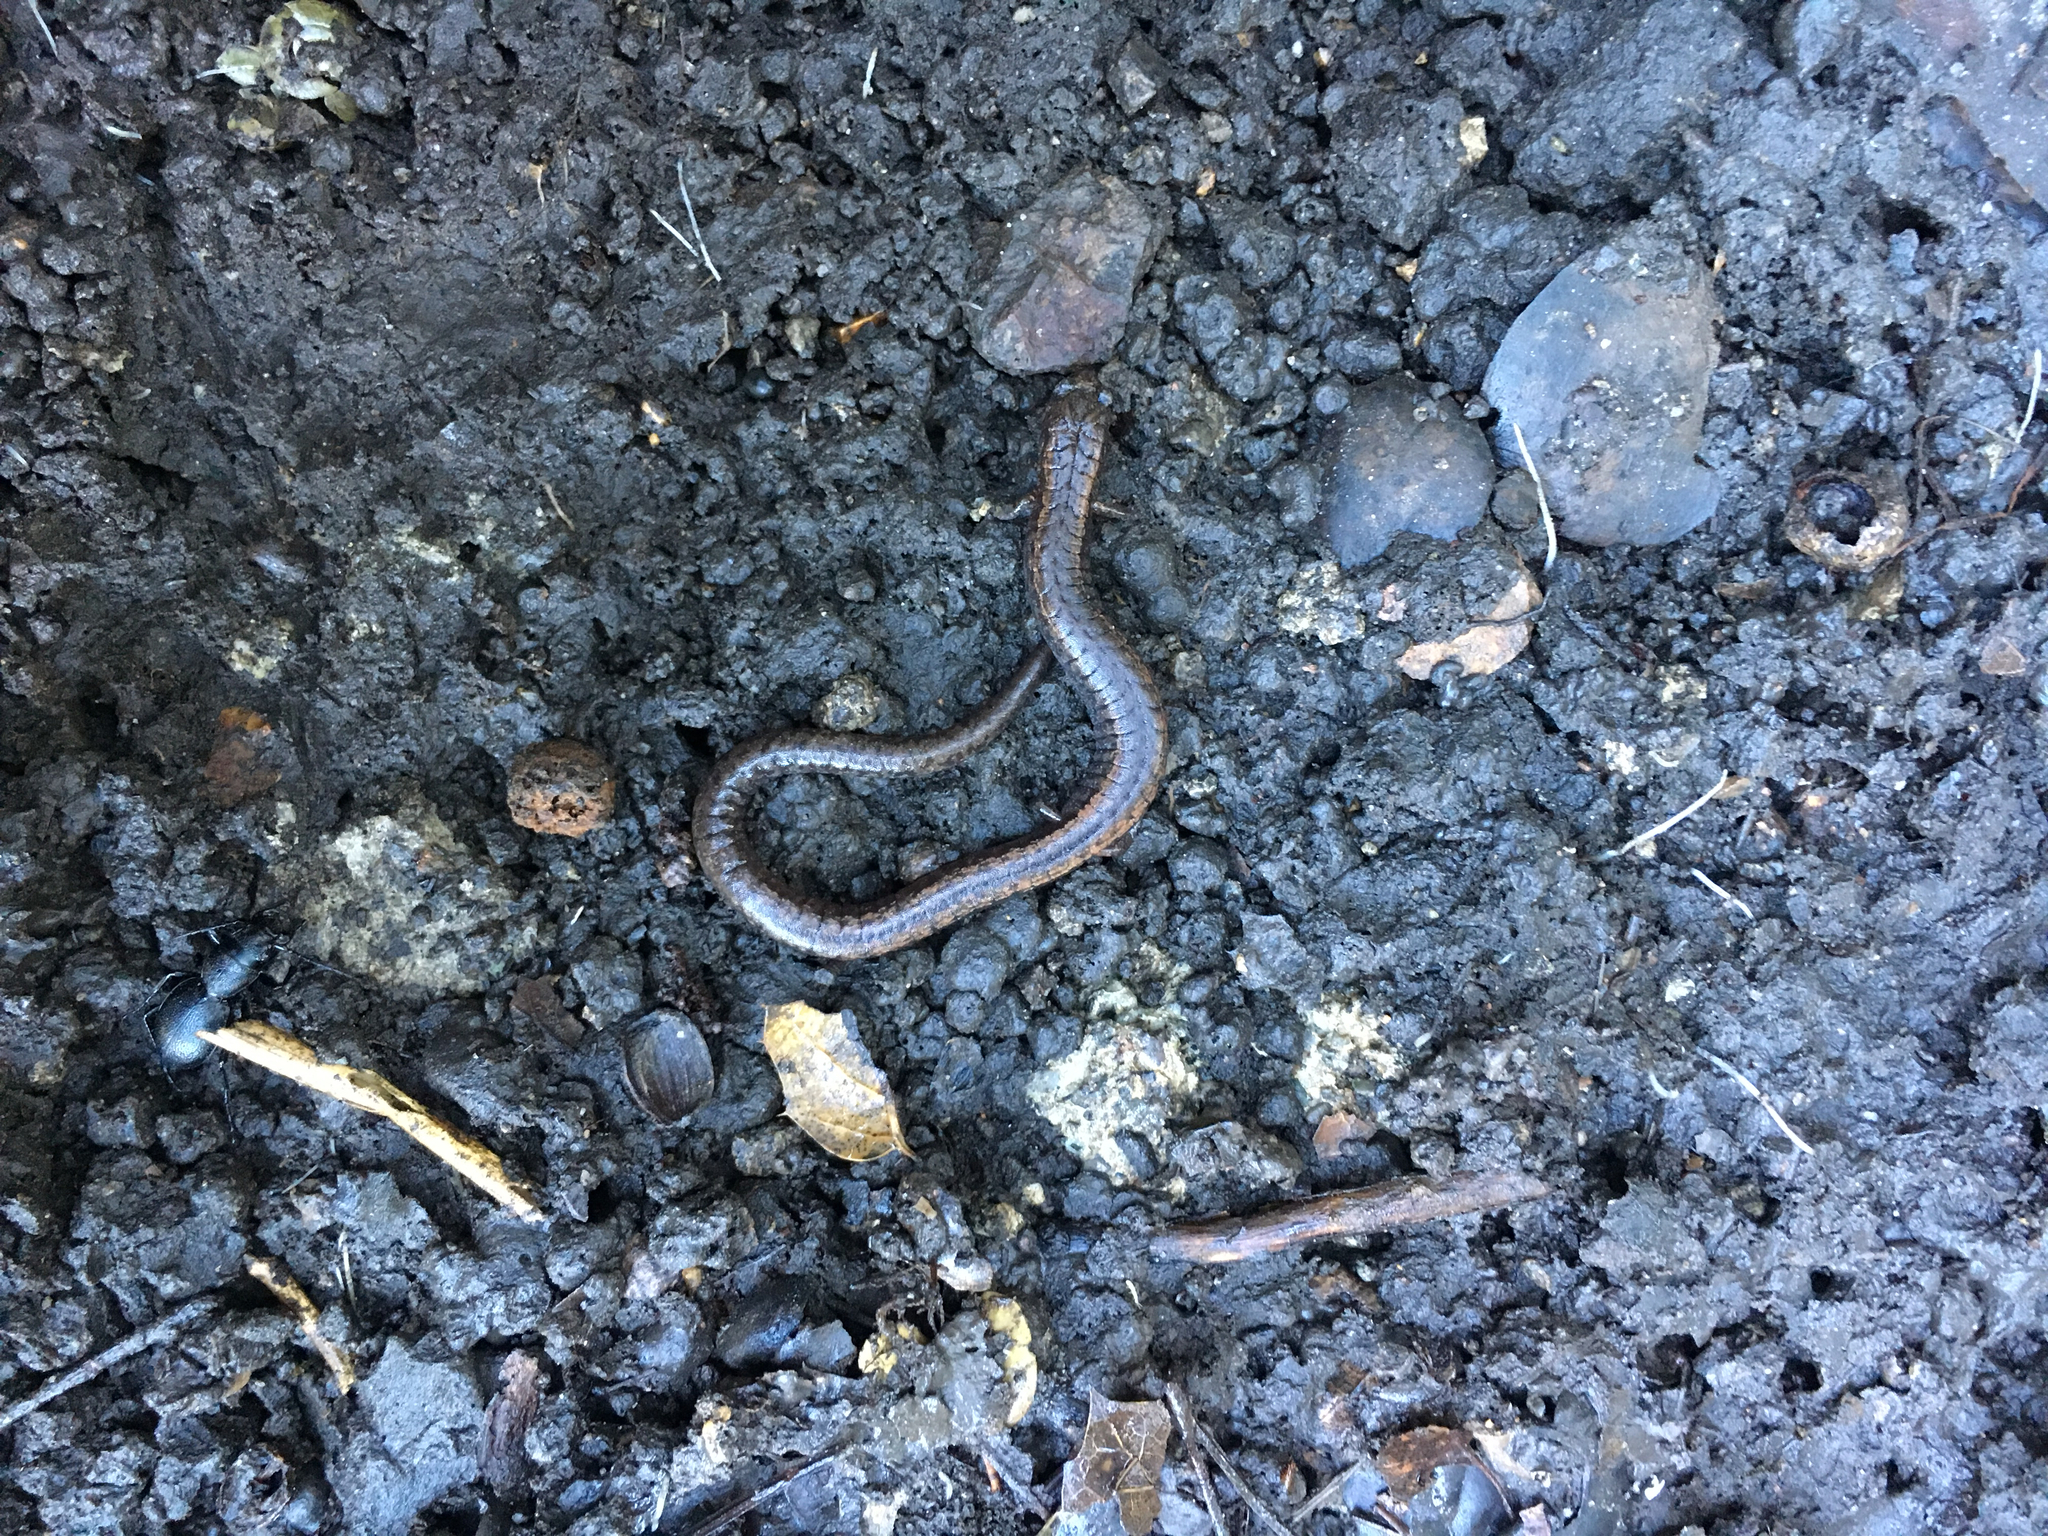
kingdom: Animalia
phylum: Chordata
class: Amphibia
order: Caudata
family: Plethodontidae
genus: Batrachoseps
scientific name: Batrachoseps attenuatus
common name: California slender salamander
